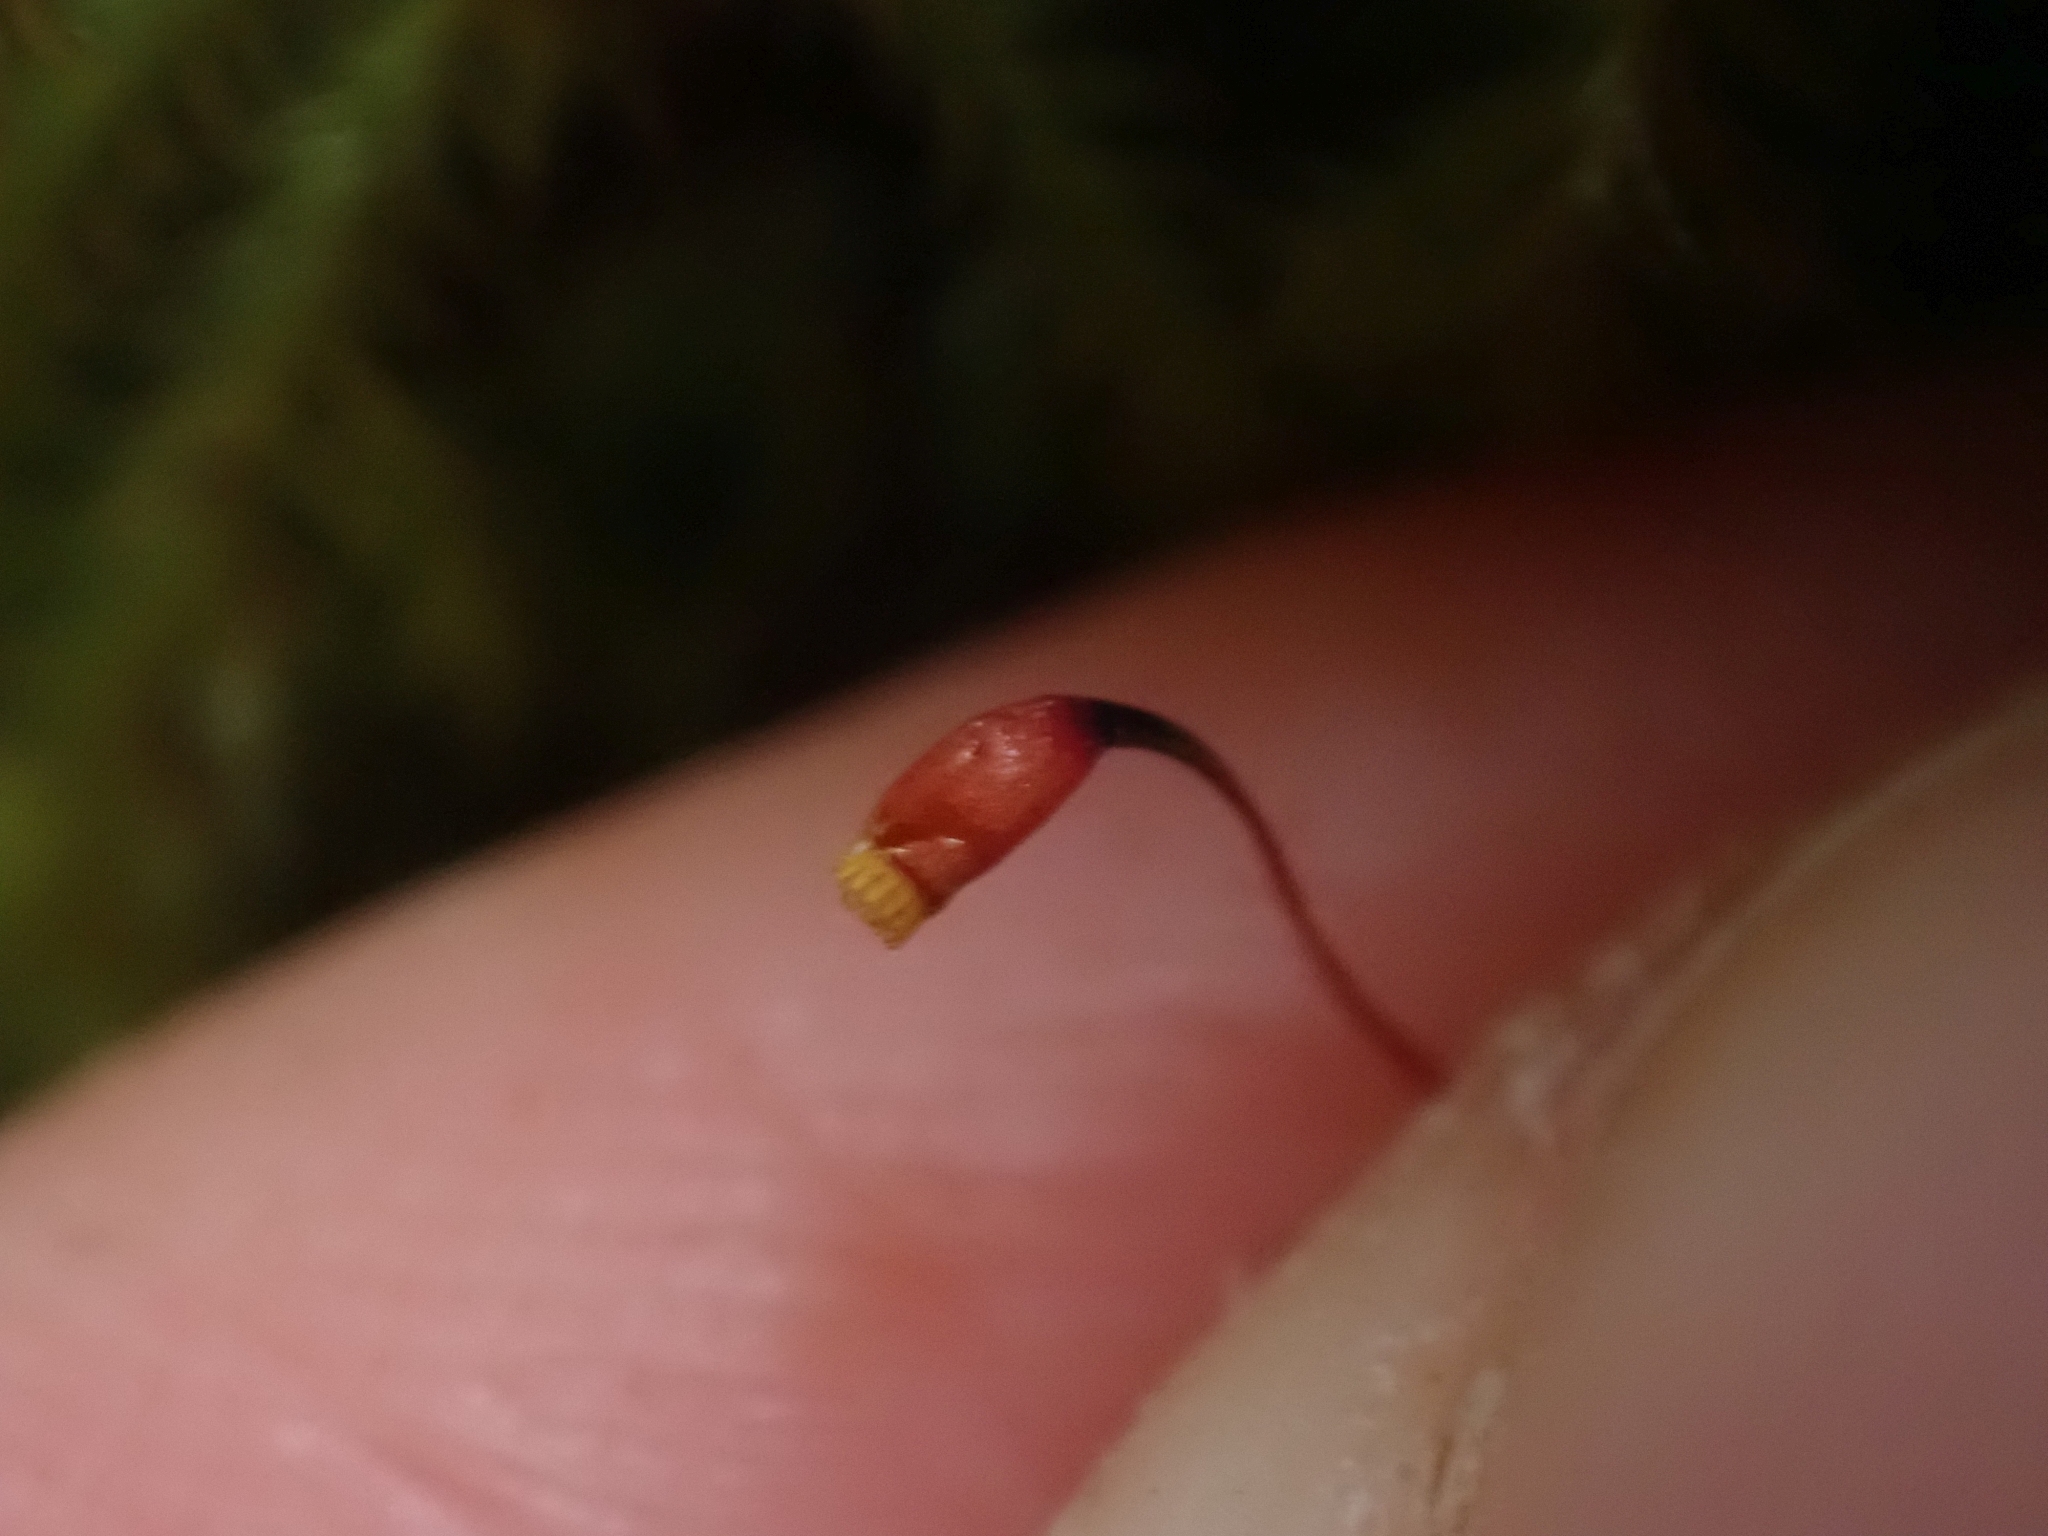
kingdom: Plantae
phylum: Bryophyta
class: Bryopsida
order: Hypnales
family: Lembophyllaceae
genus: Pseudisothecium
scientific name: Pseudisothecium stoloniferum
